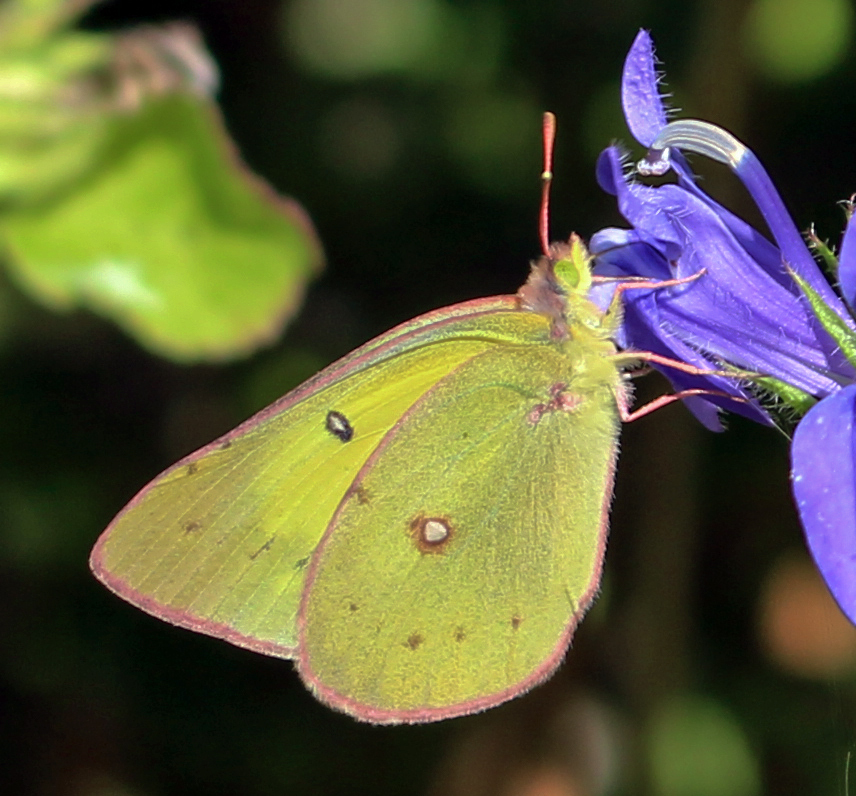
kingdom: Animalia
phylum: Arthropoda
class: Insecta
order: Lepidoptera
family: Pieridae
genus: Colias
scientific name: Colias philodice
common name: Clouded sulphur
